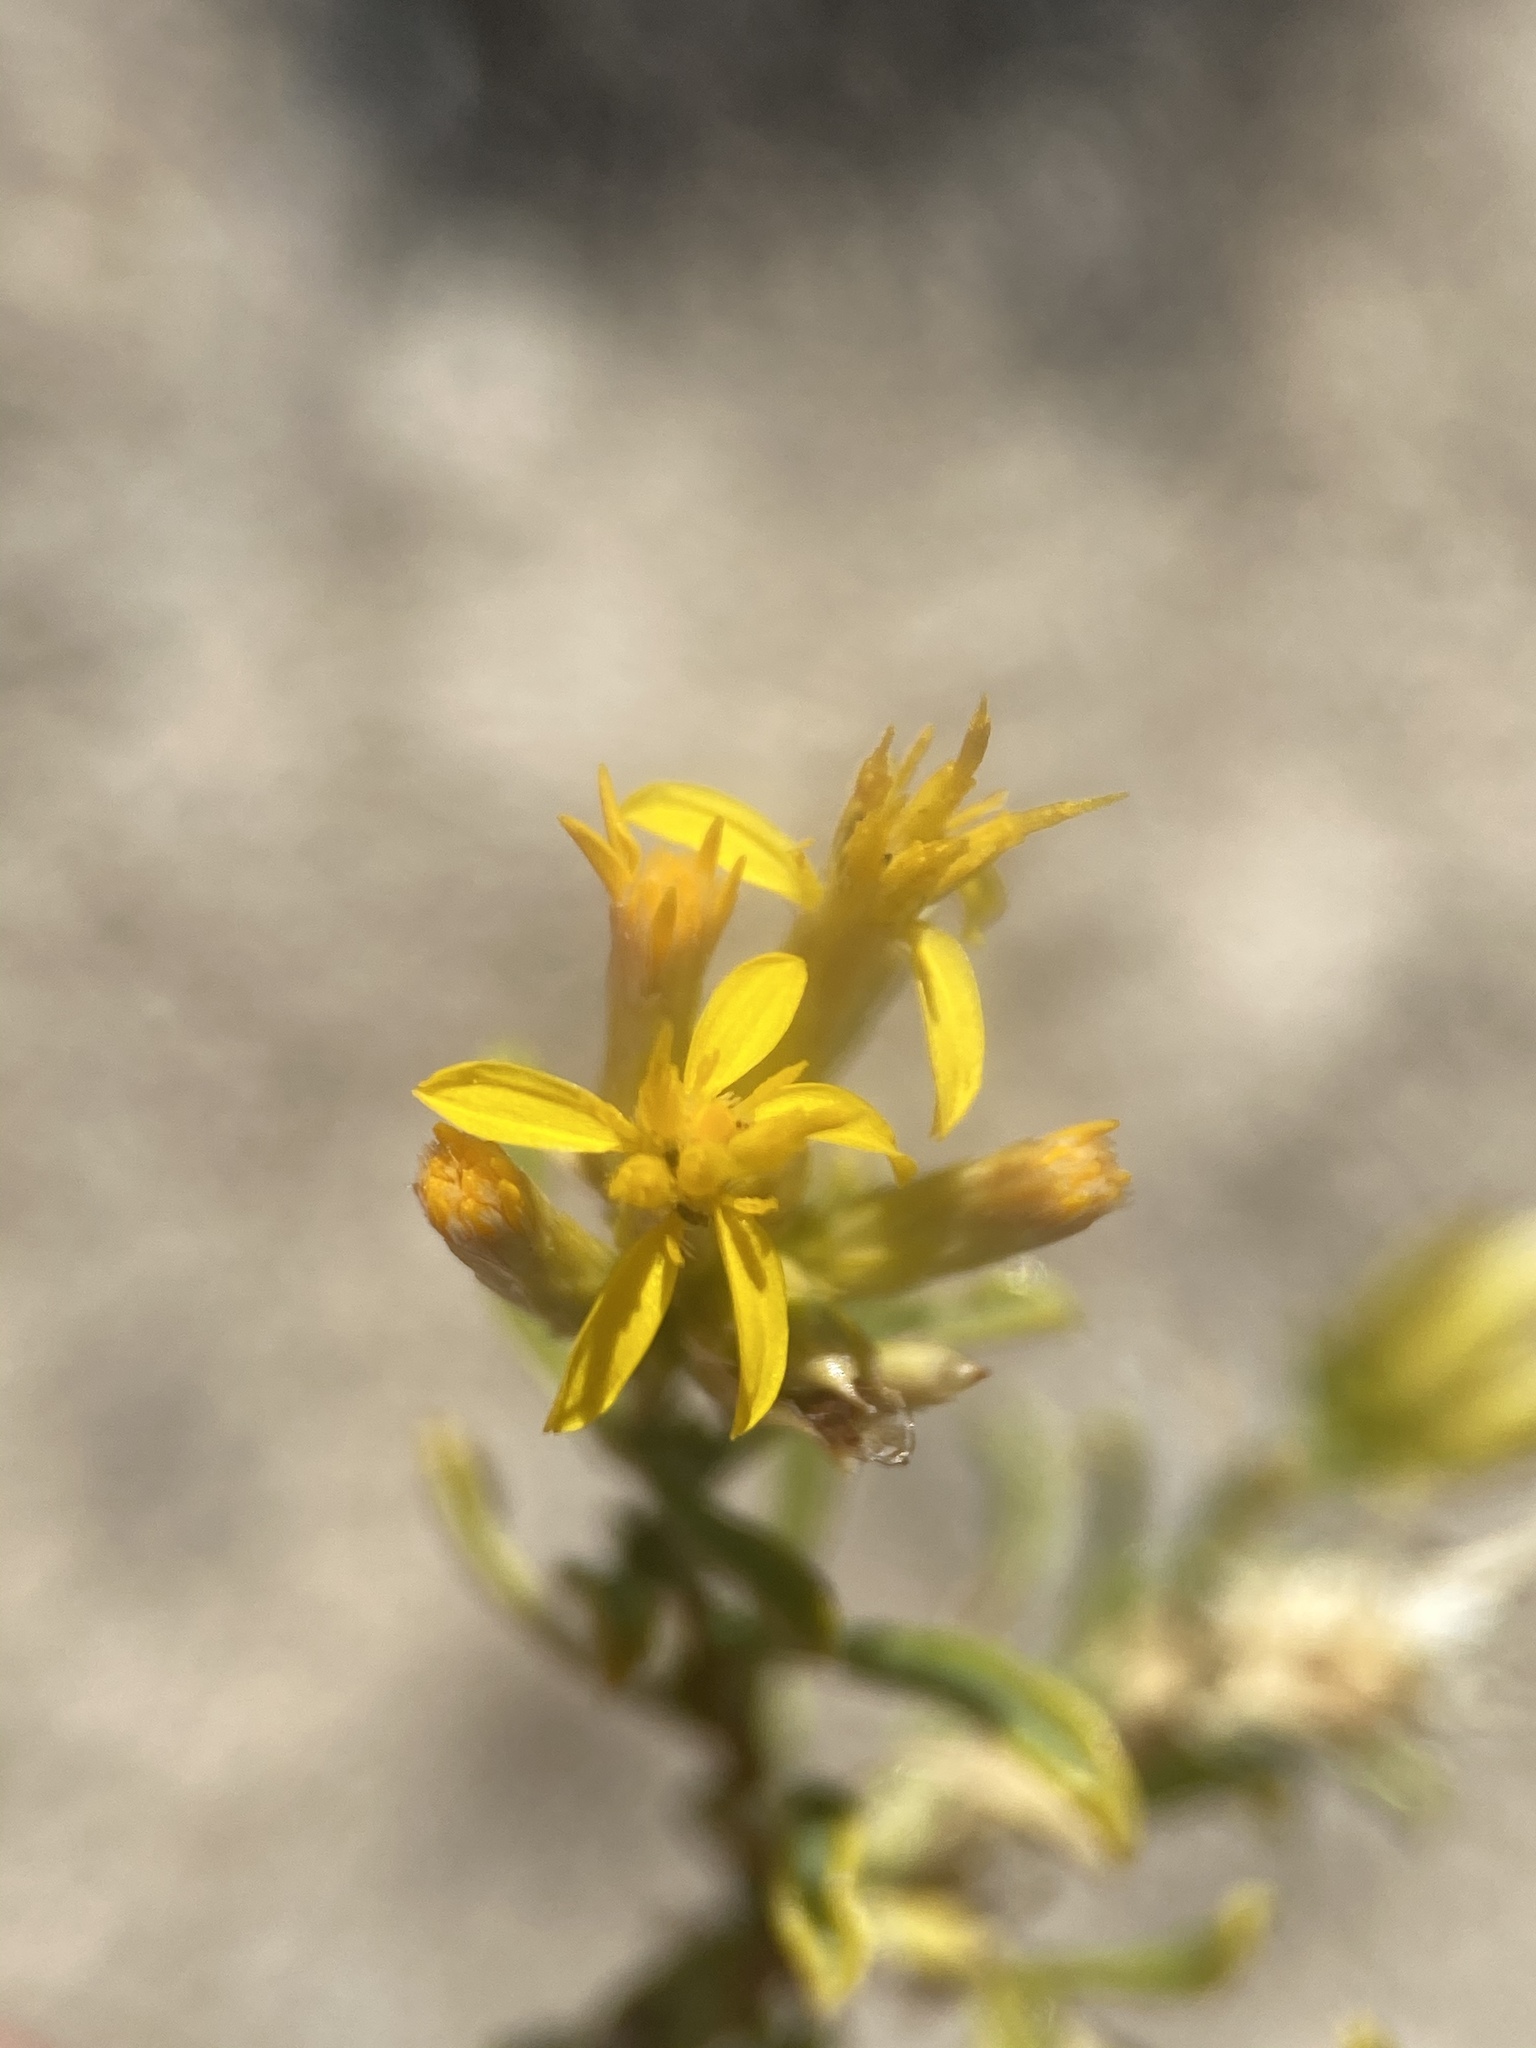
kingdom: Plantae
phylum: Tracheophyta
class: Magnoliopsida
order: Asterales
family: Asteraceae
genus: Ericameria
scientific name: Ericameria nana
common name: Dwarf goldenbush
